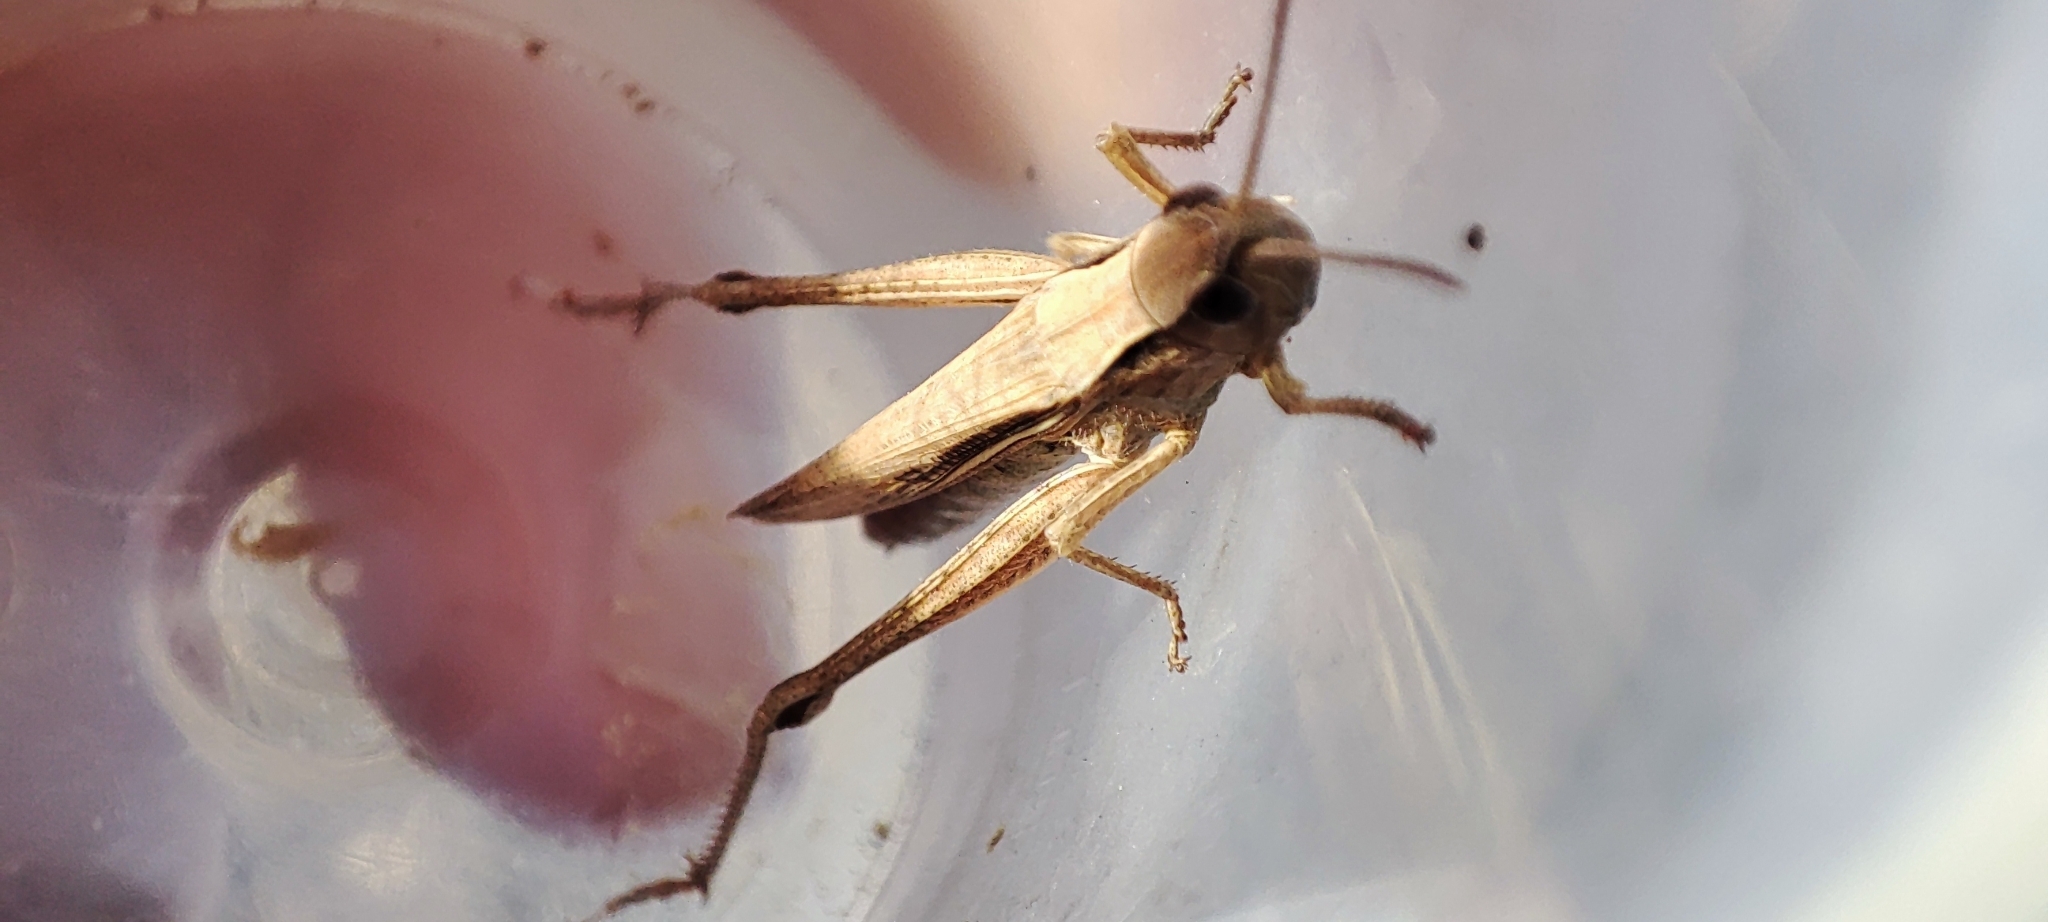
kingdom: Animalia
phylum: Arthropoda
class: Insecta
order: Orthoptera
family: Acrididae
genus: Chorthippus
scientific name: Chorthippus albomarginatus
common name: Lesser marsh grasshopper
